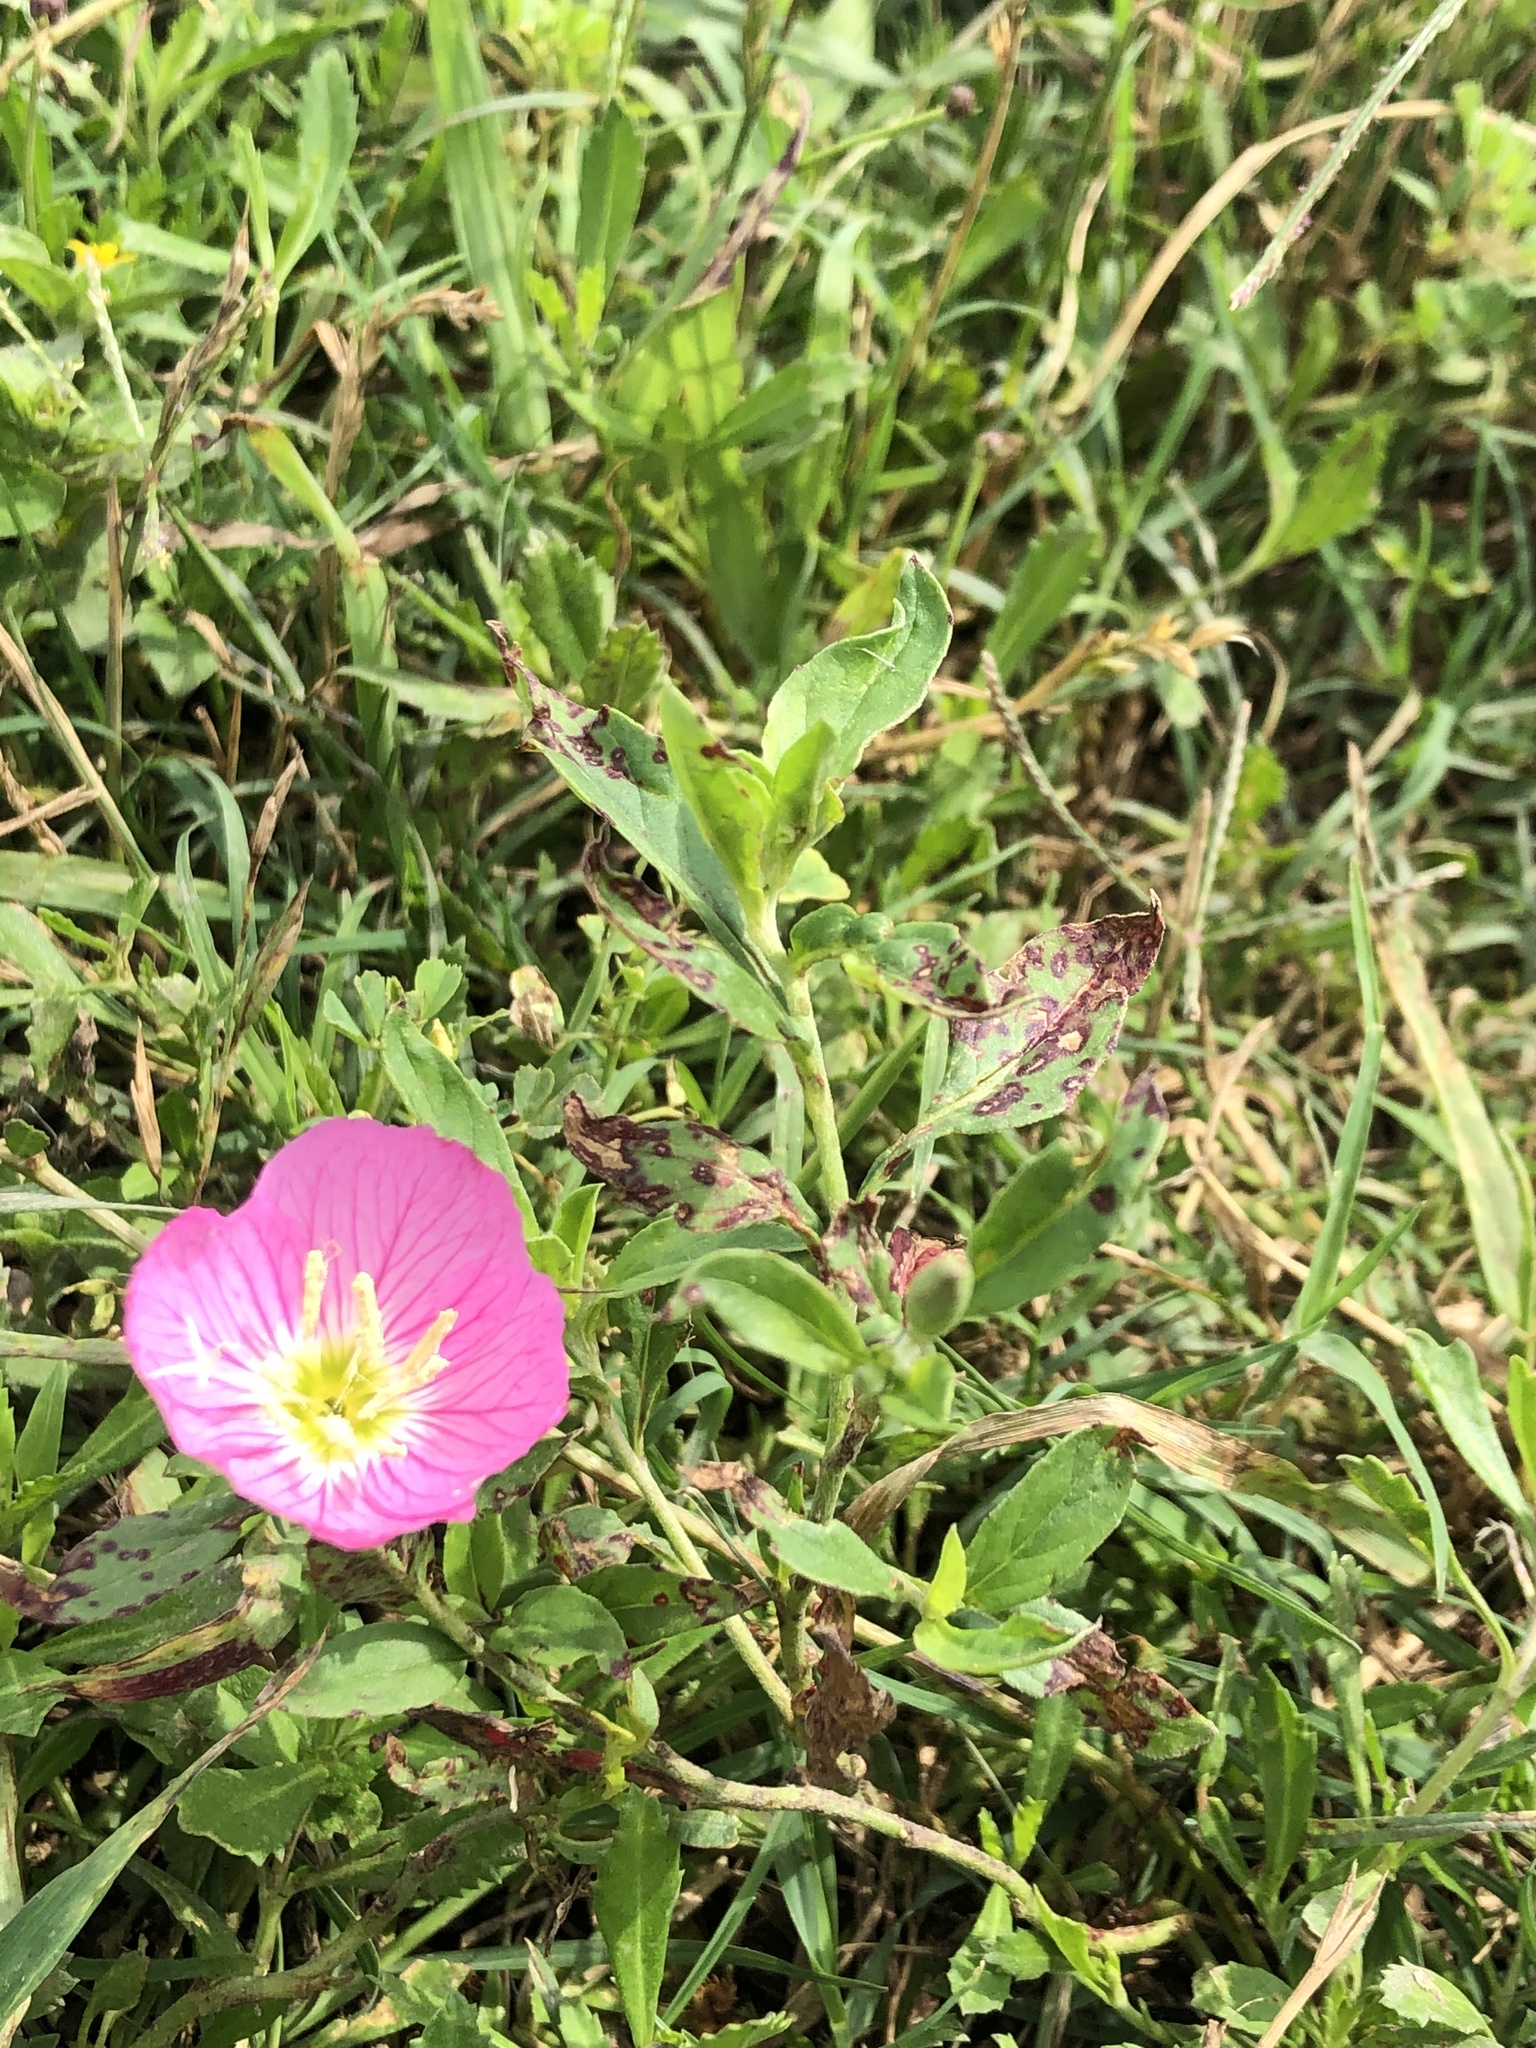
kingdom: Plantae
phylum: Tracheophyta
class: Magnoliopsida
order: Myrtales
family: Onagraceae
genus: Oenothera
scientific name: Oenothera speciosa
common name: White evening-primrose
